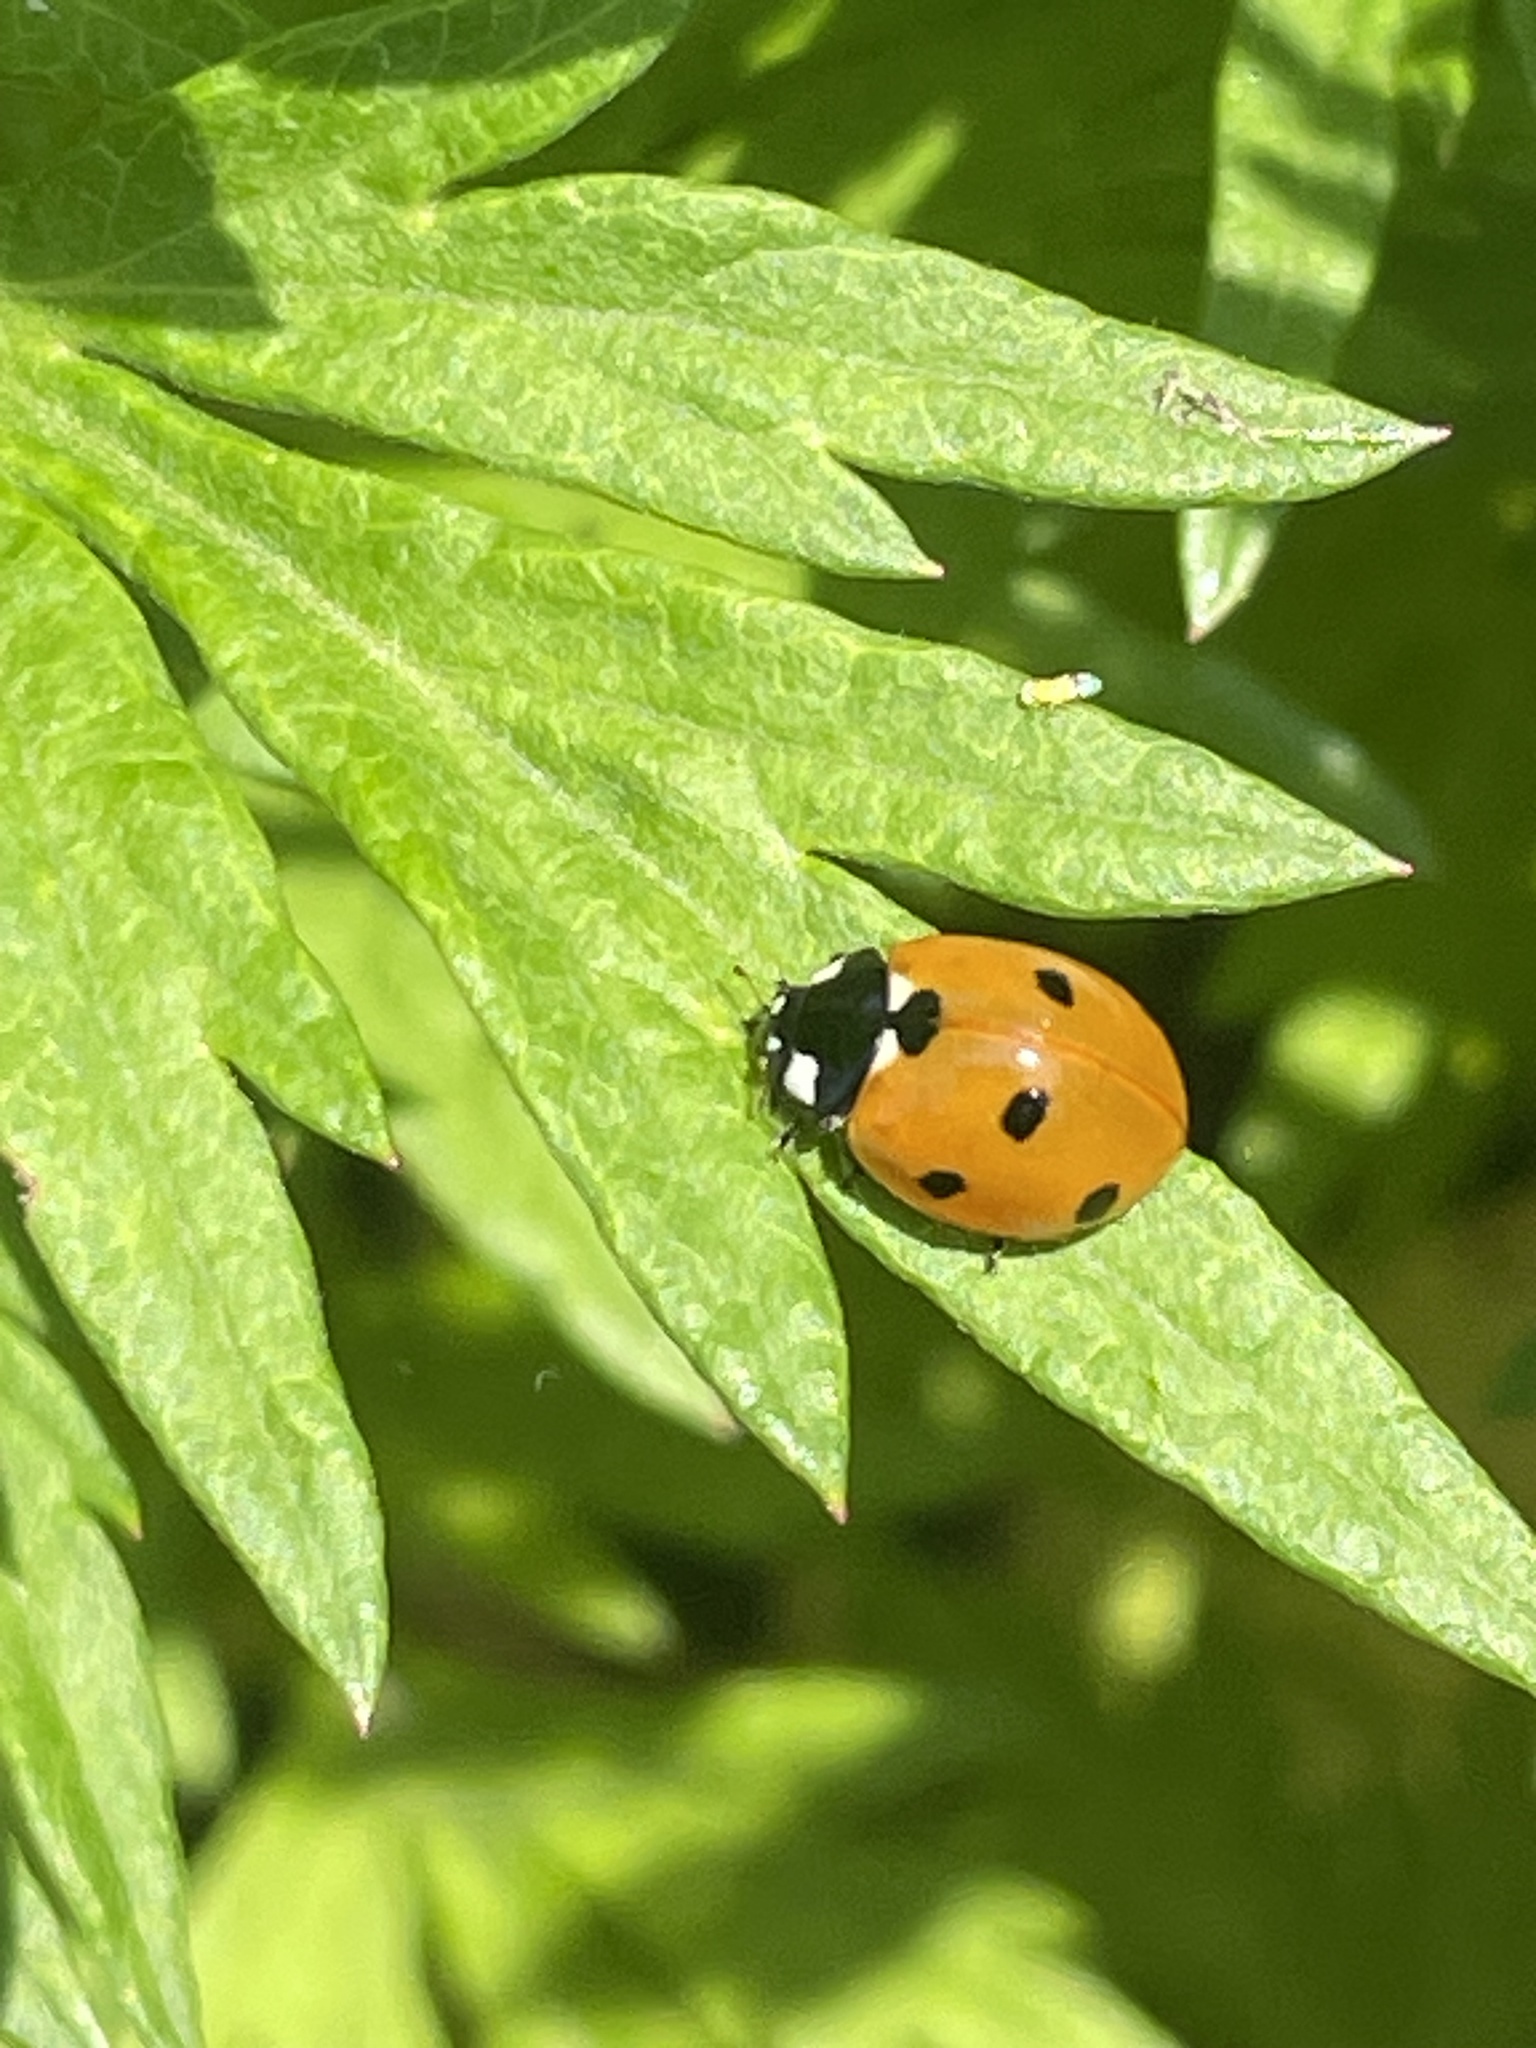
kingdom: Animalia
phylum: Arthropoda
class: Insecta
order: Coleoptera
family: Coccinellidae
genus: Coccinella
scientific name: Coccinella septempunctata
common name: Sevenspotted lady beetle
